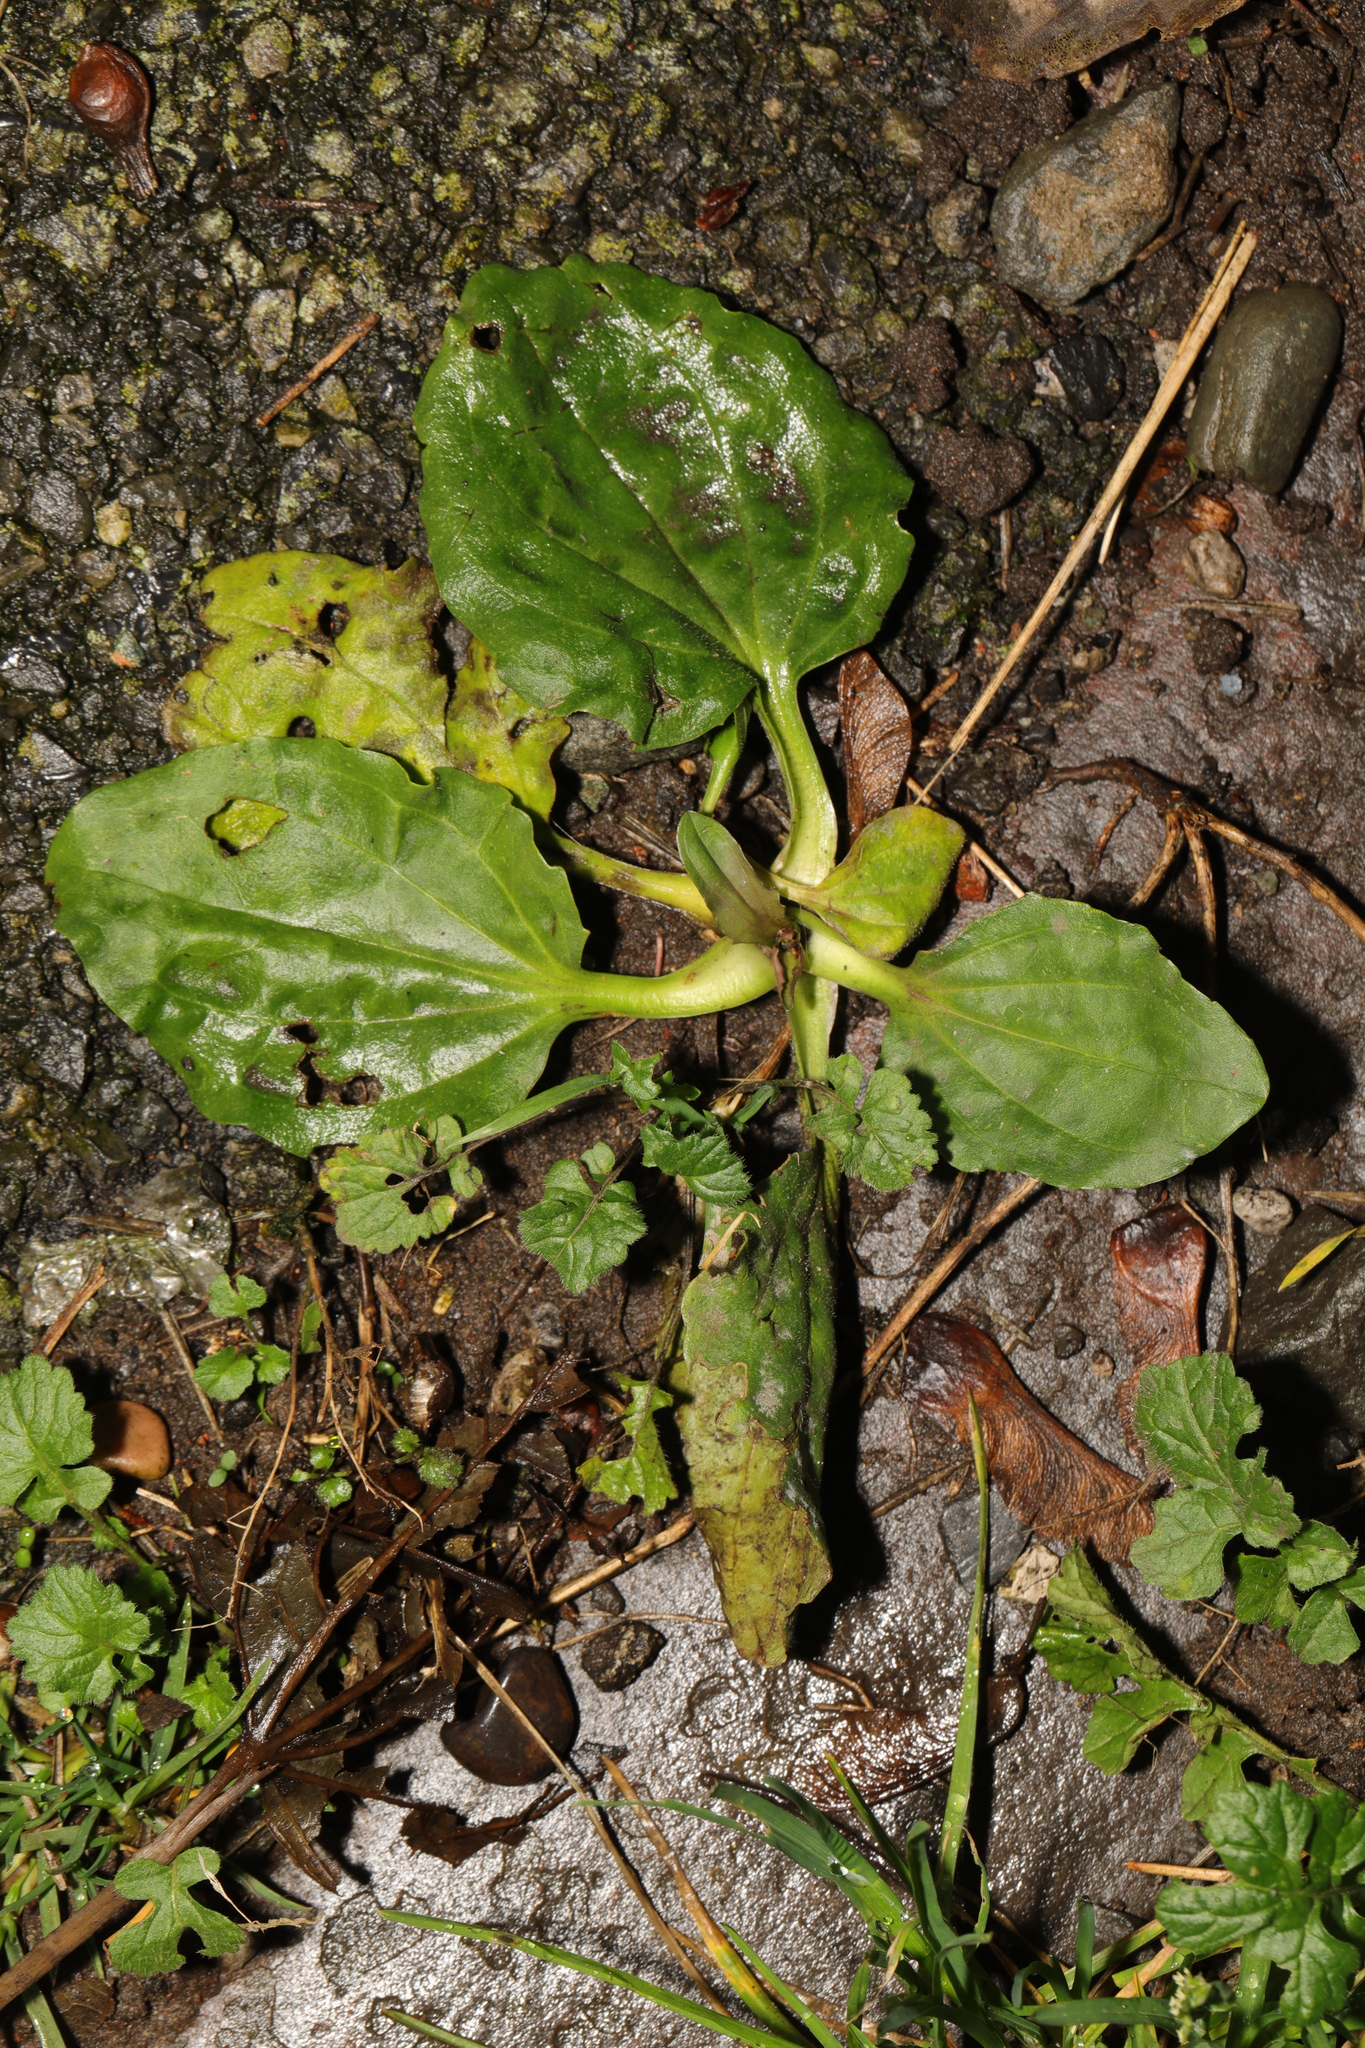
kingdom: Plantae
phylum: Tracheophyta
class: Magnoliopsida
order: Lamiales
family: Plantaginaceae
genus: Plantago
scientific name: Plantago major
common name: Common plantain
